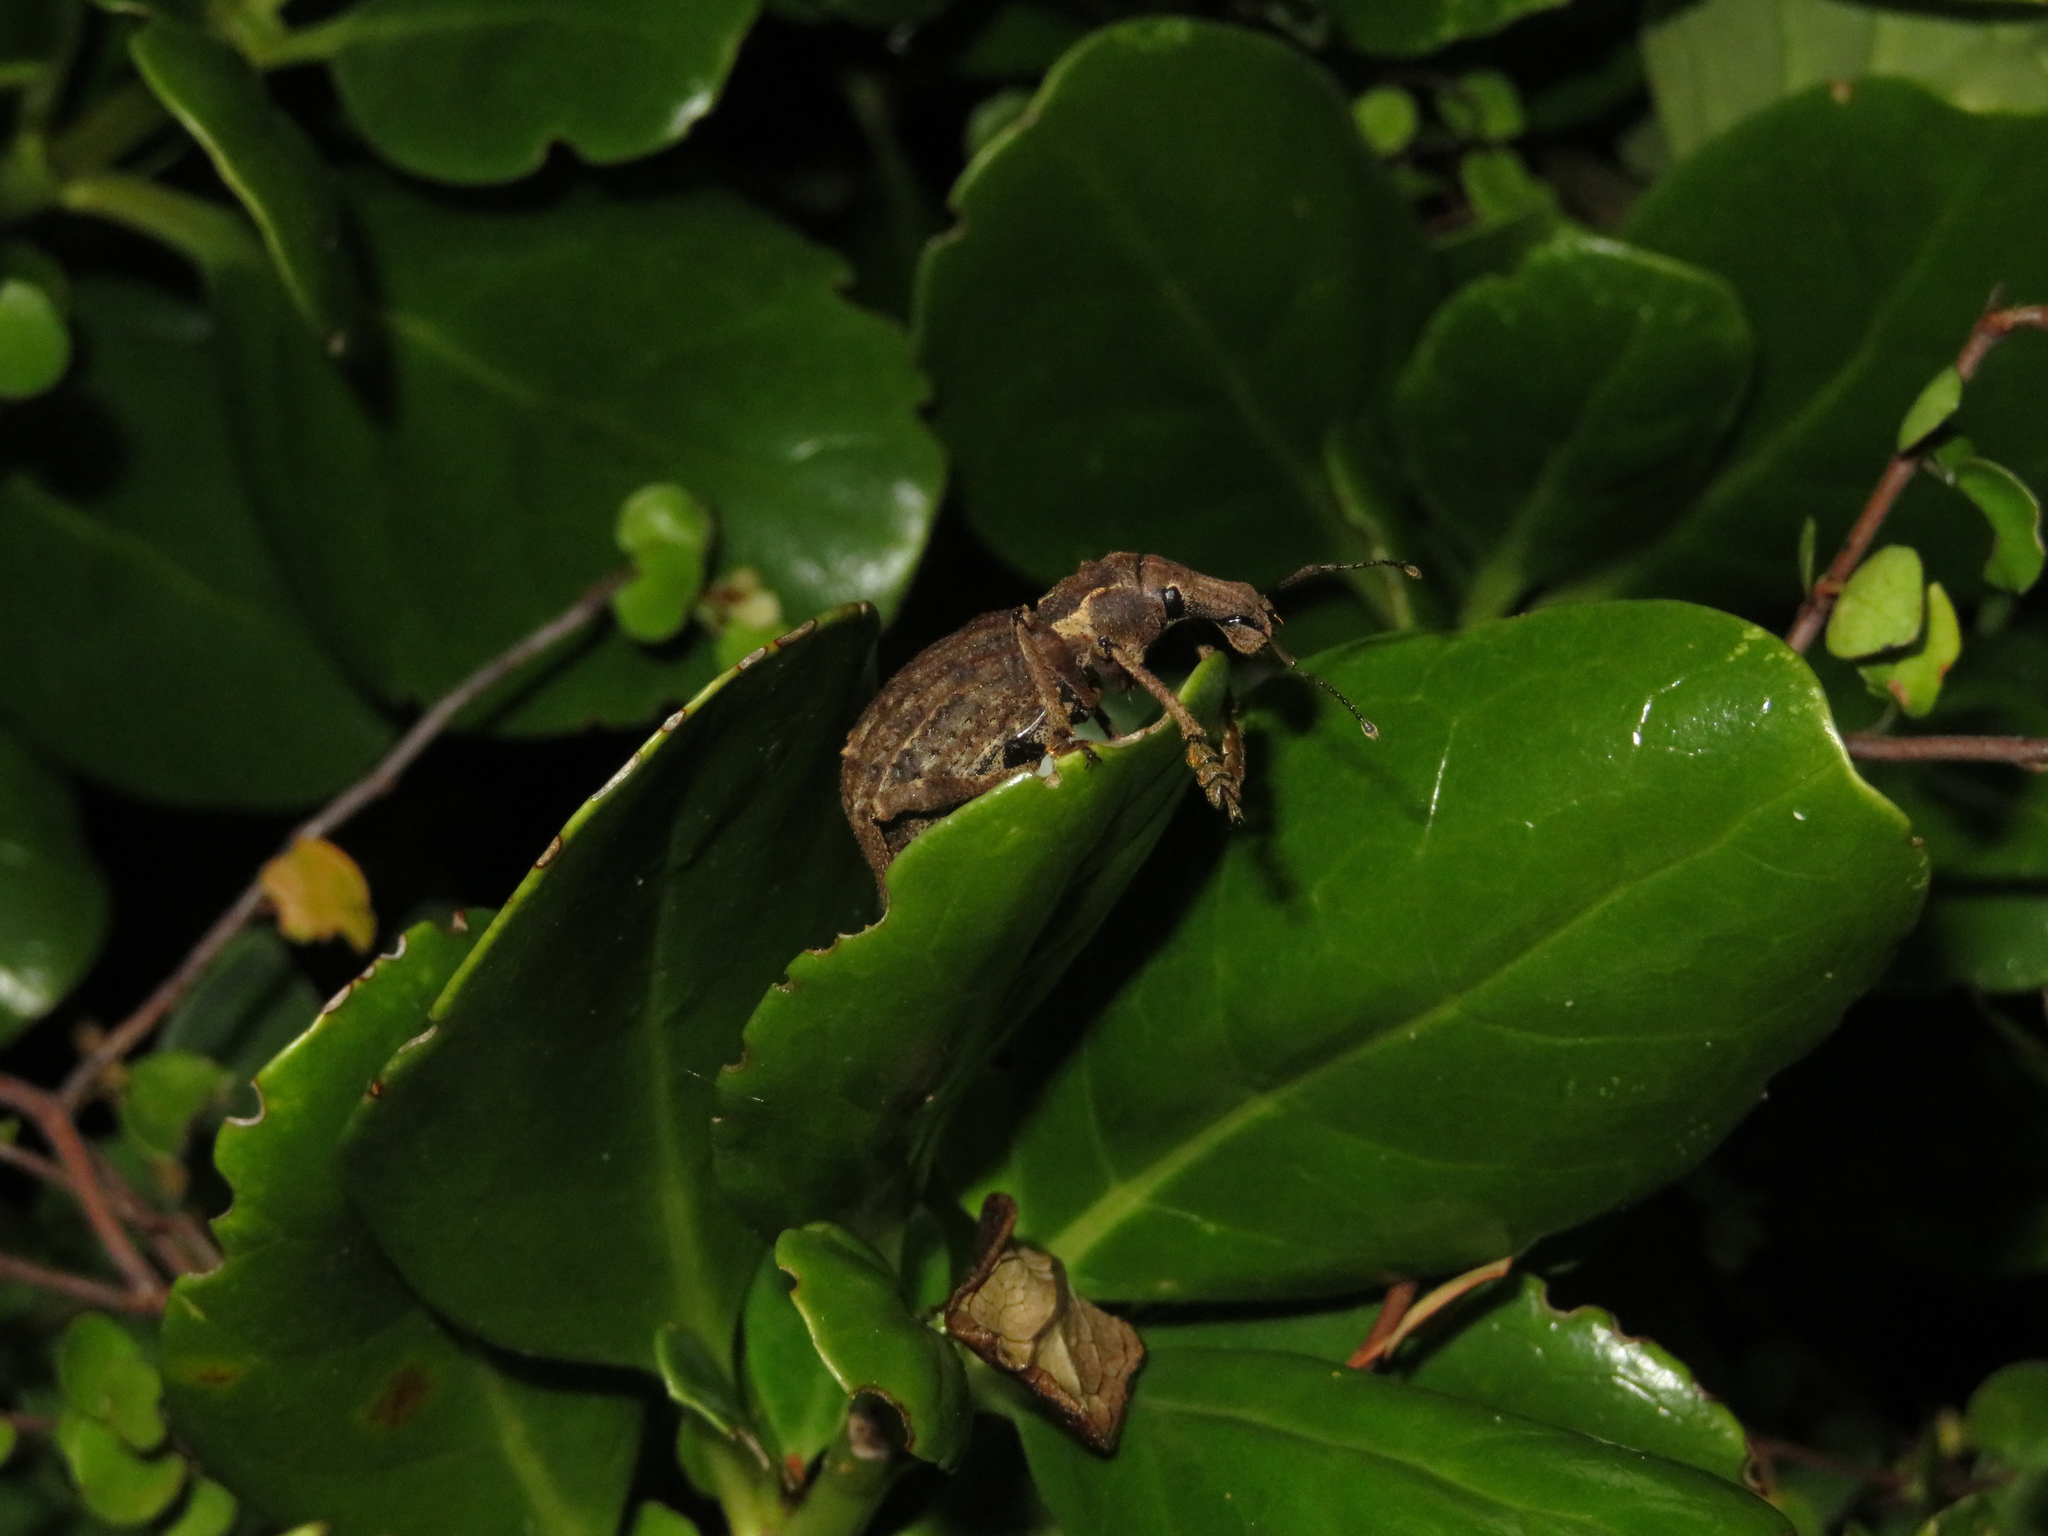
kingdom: Animalia
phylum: Arthropoda
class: Insecta
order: Coleoptera
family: Curculionidae
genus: Anagotus
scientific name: Anagotus fairburni
